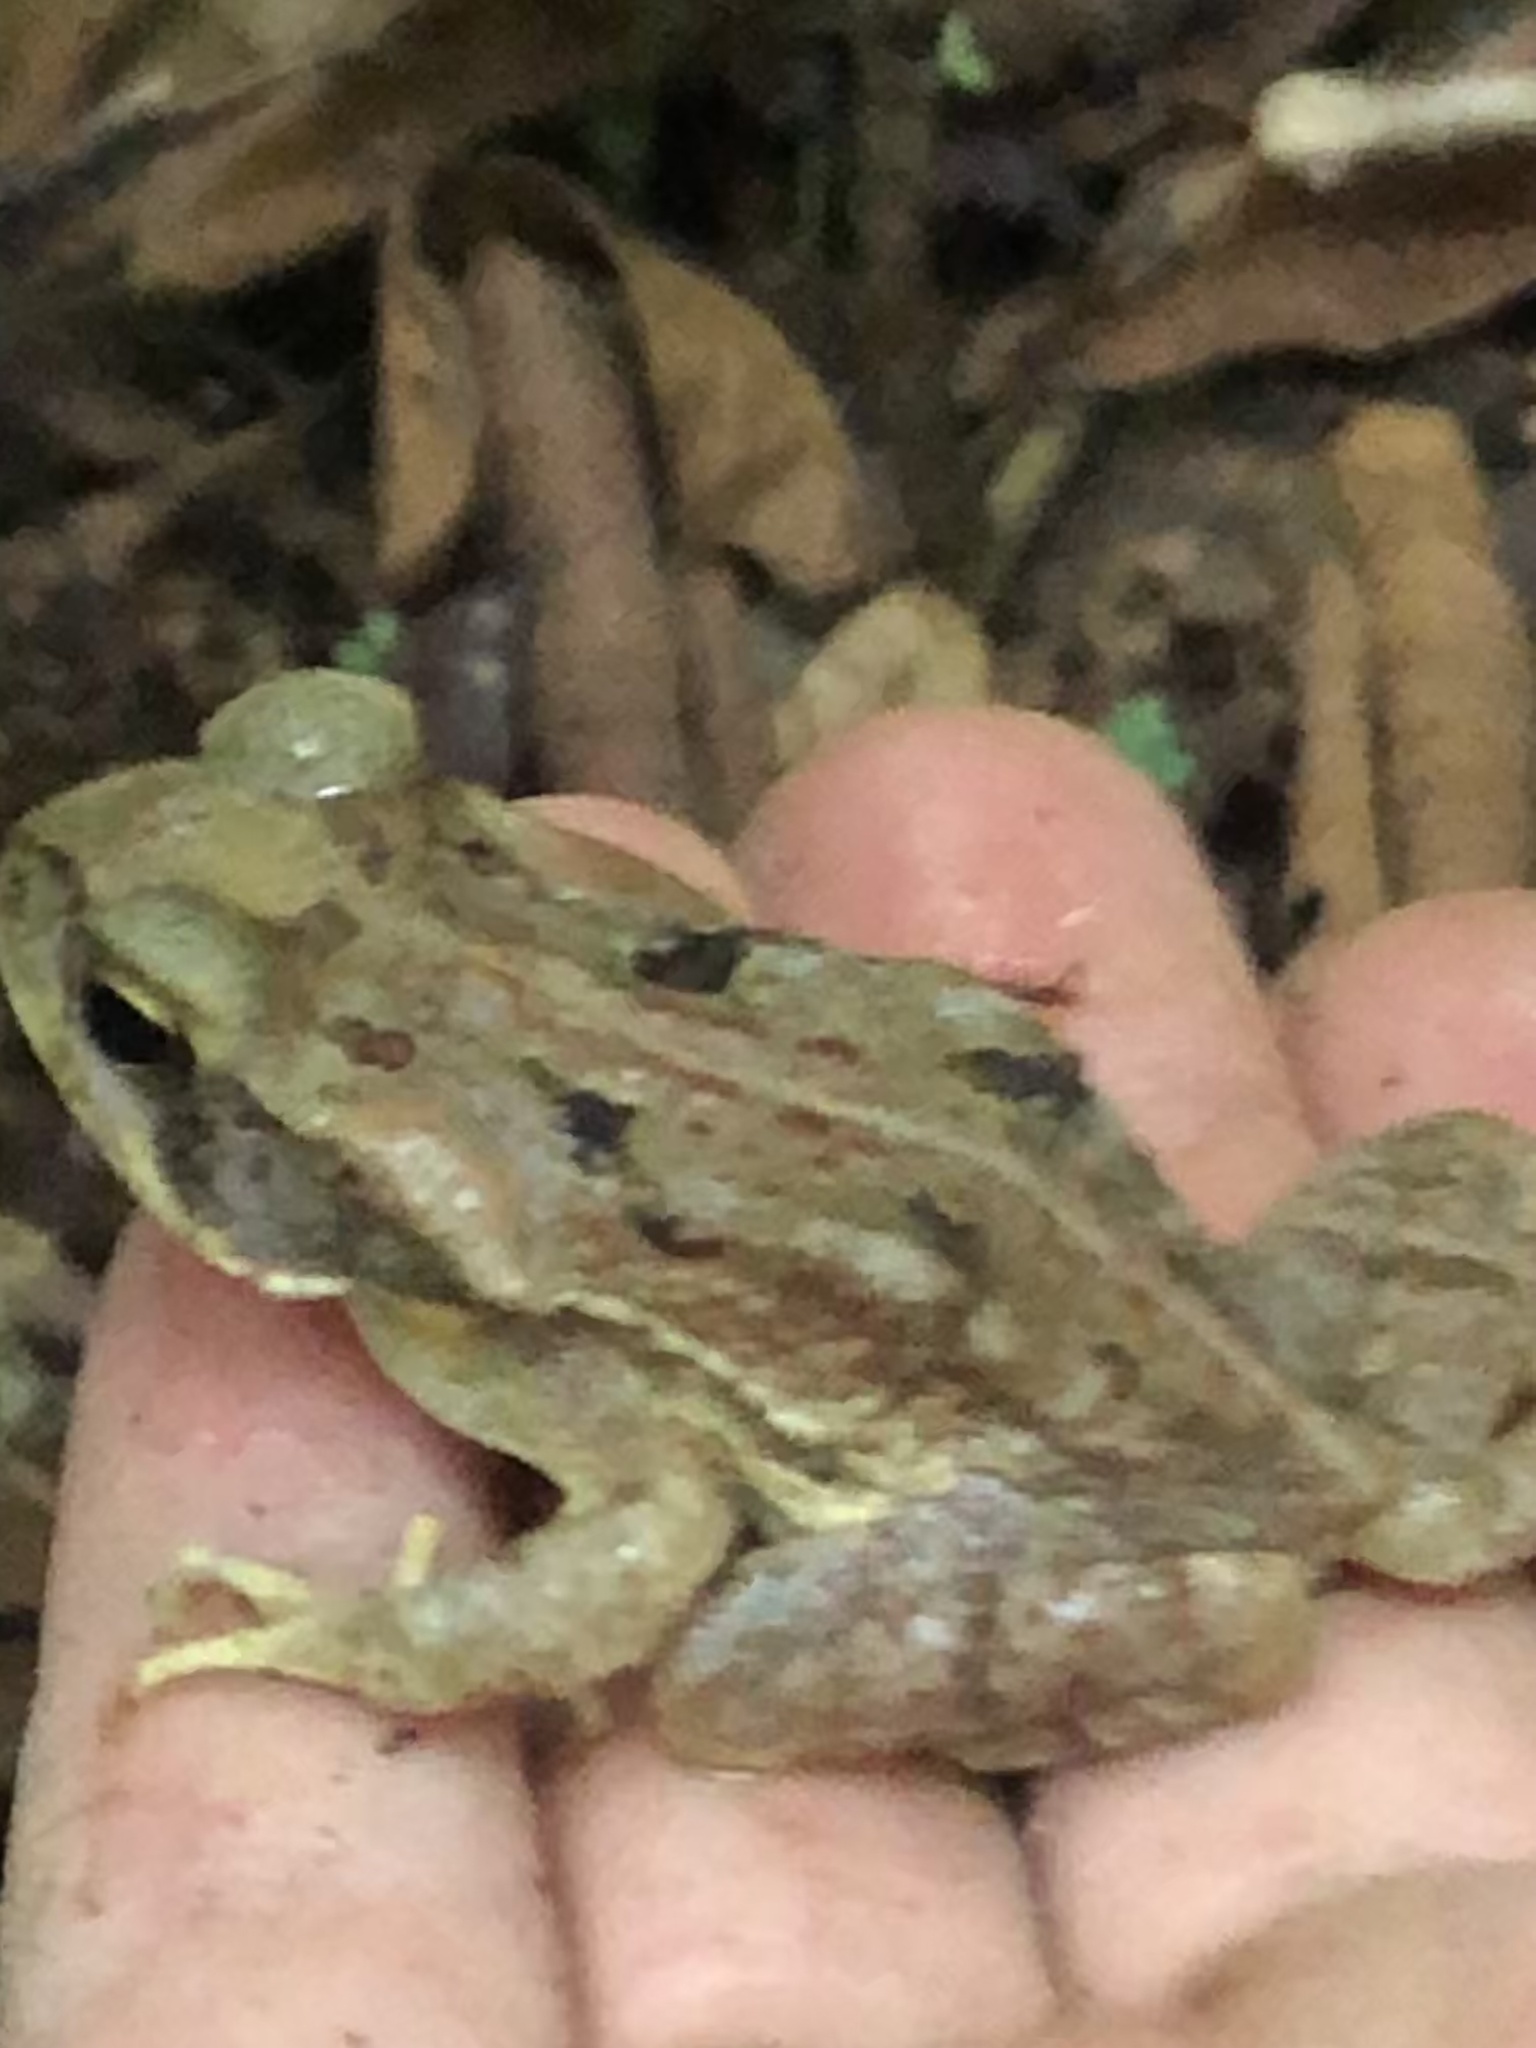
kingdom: Animalia
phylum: Chordata
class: Amphibia
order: Anura
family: Bufonidae
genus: Rhinella
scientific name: Rhinella marina
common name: Cane toad
